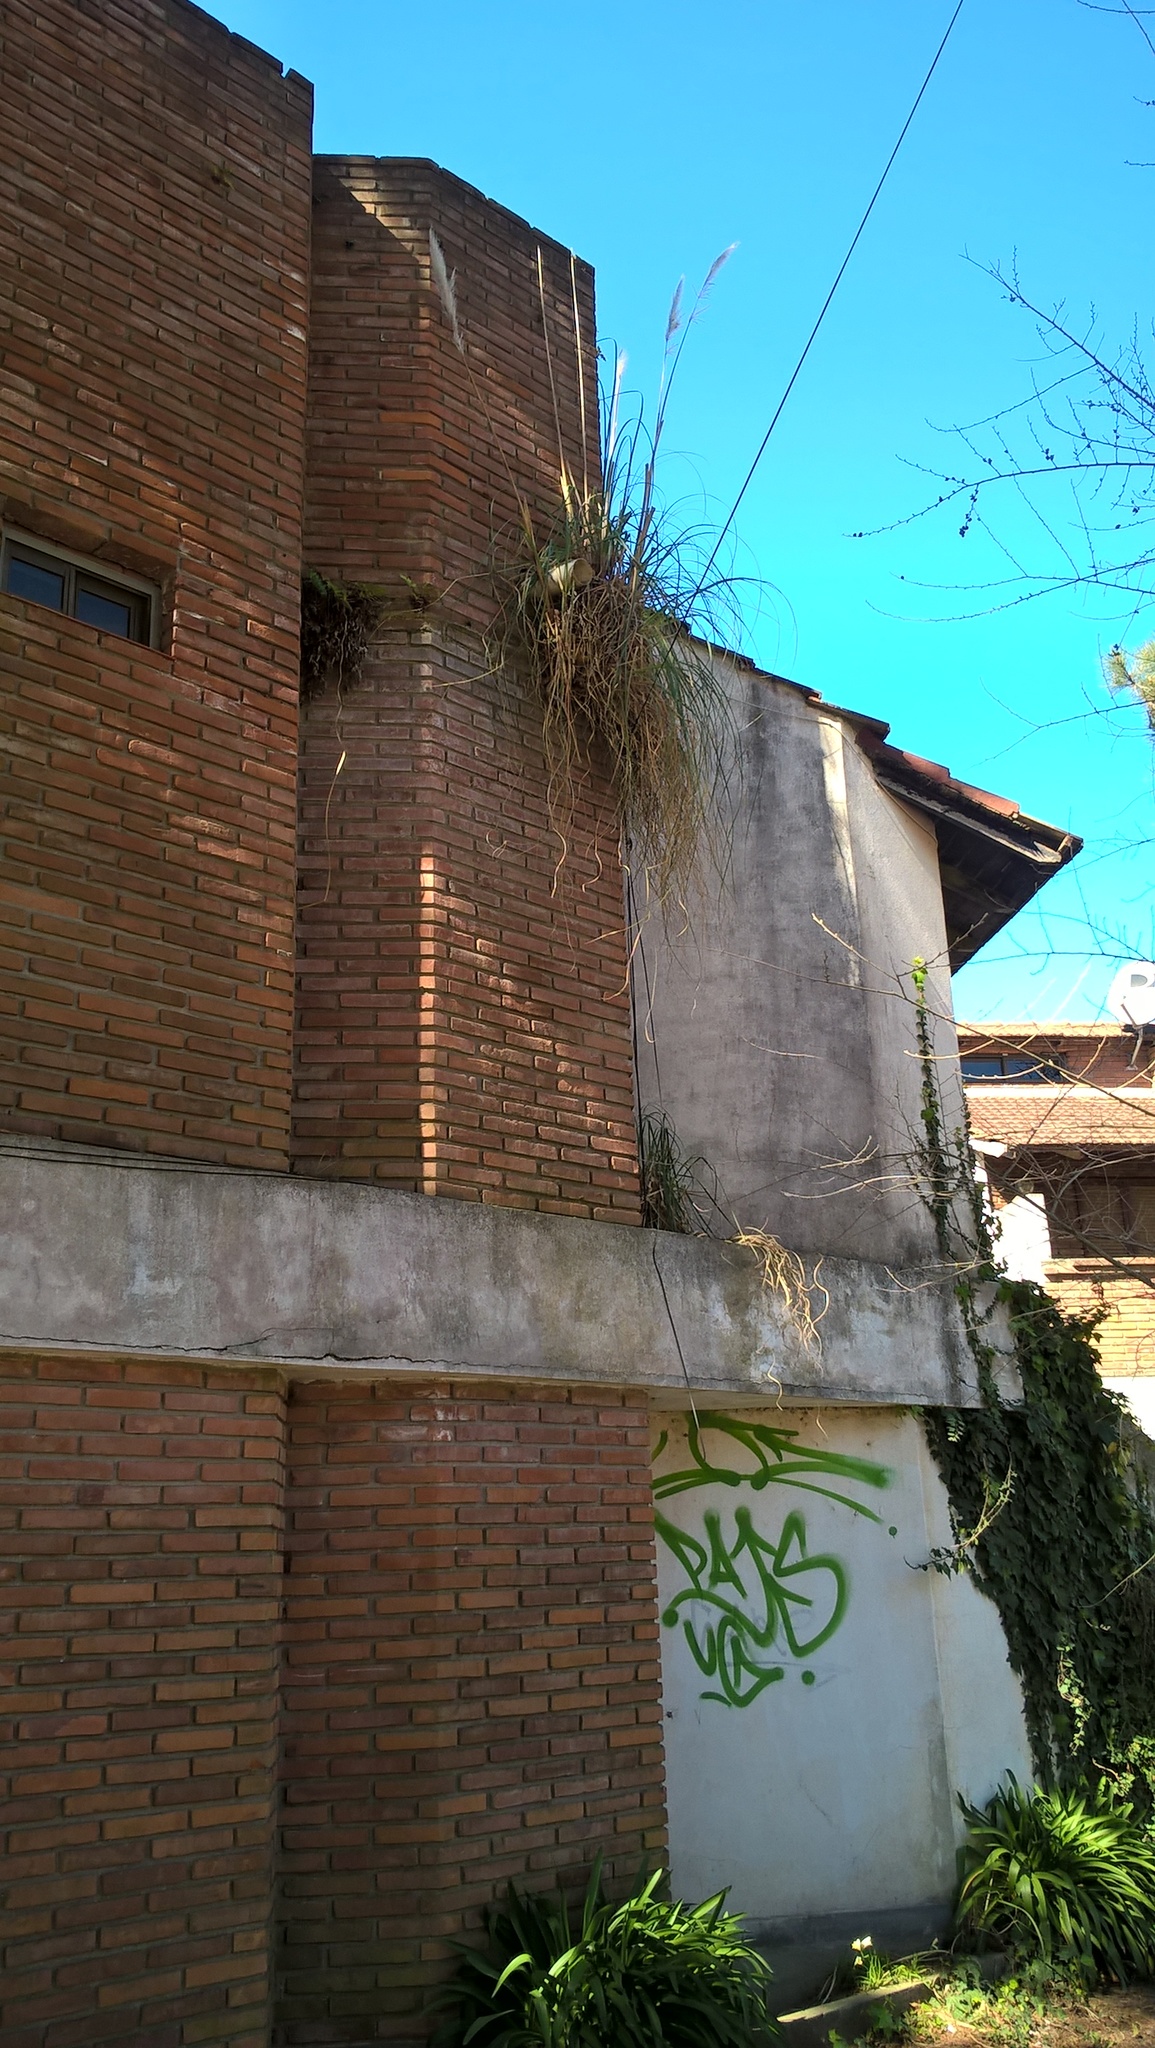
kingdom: Plantae
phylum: Tracheophyta
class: Liliopsida
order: Poales
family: Poaceae
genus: Cortaderia
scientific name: Cortaderia selloana
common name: Uruguayan pampas grass
